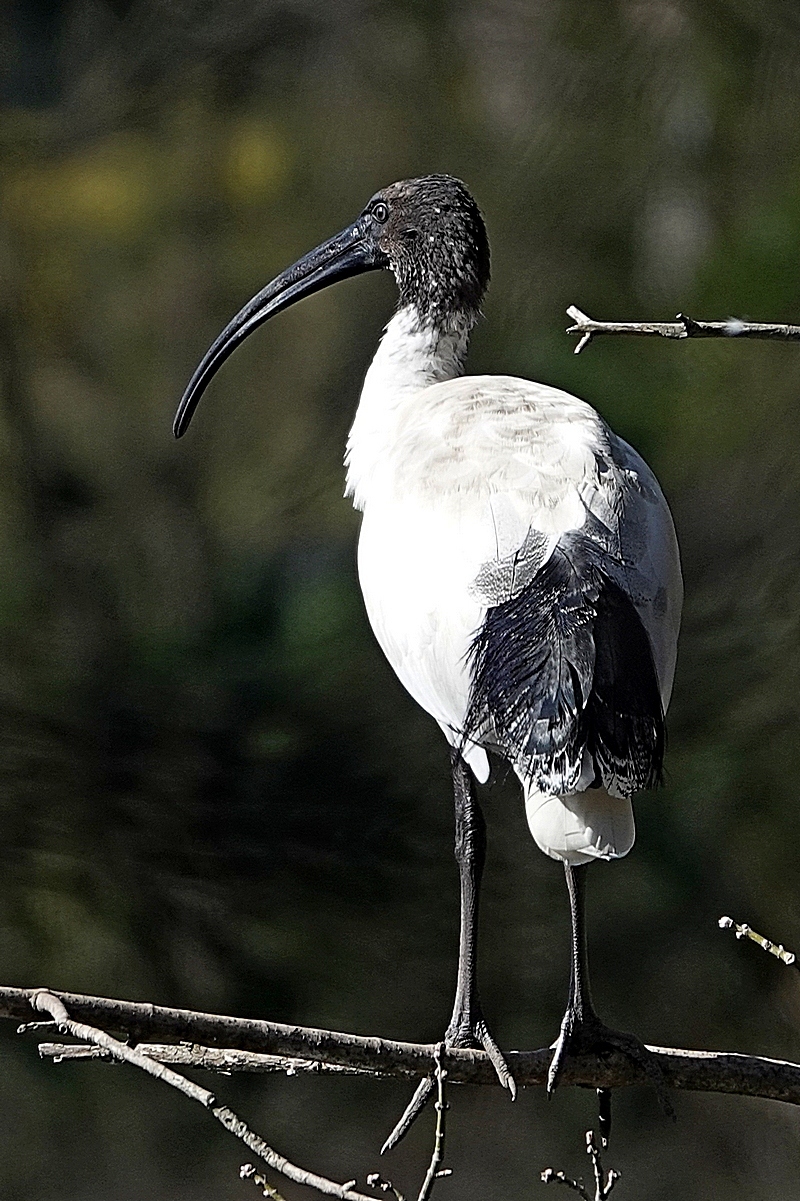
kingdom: Animalia
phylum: Chordata
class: Aves
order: Pelecaniformes
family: Threskiornithidae
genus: Threskiornis
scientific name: Threskiornis molucca
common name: Australian white ibis
